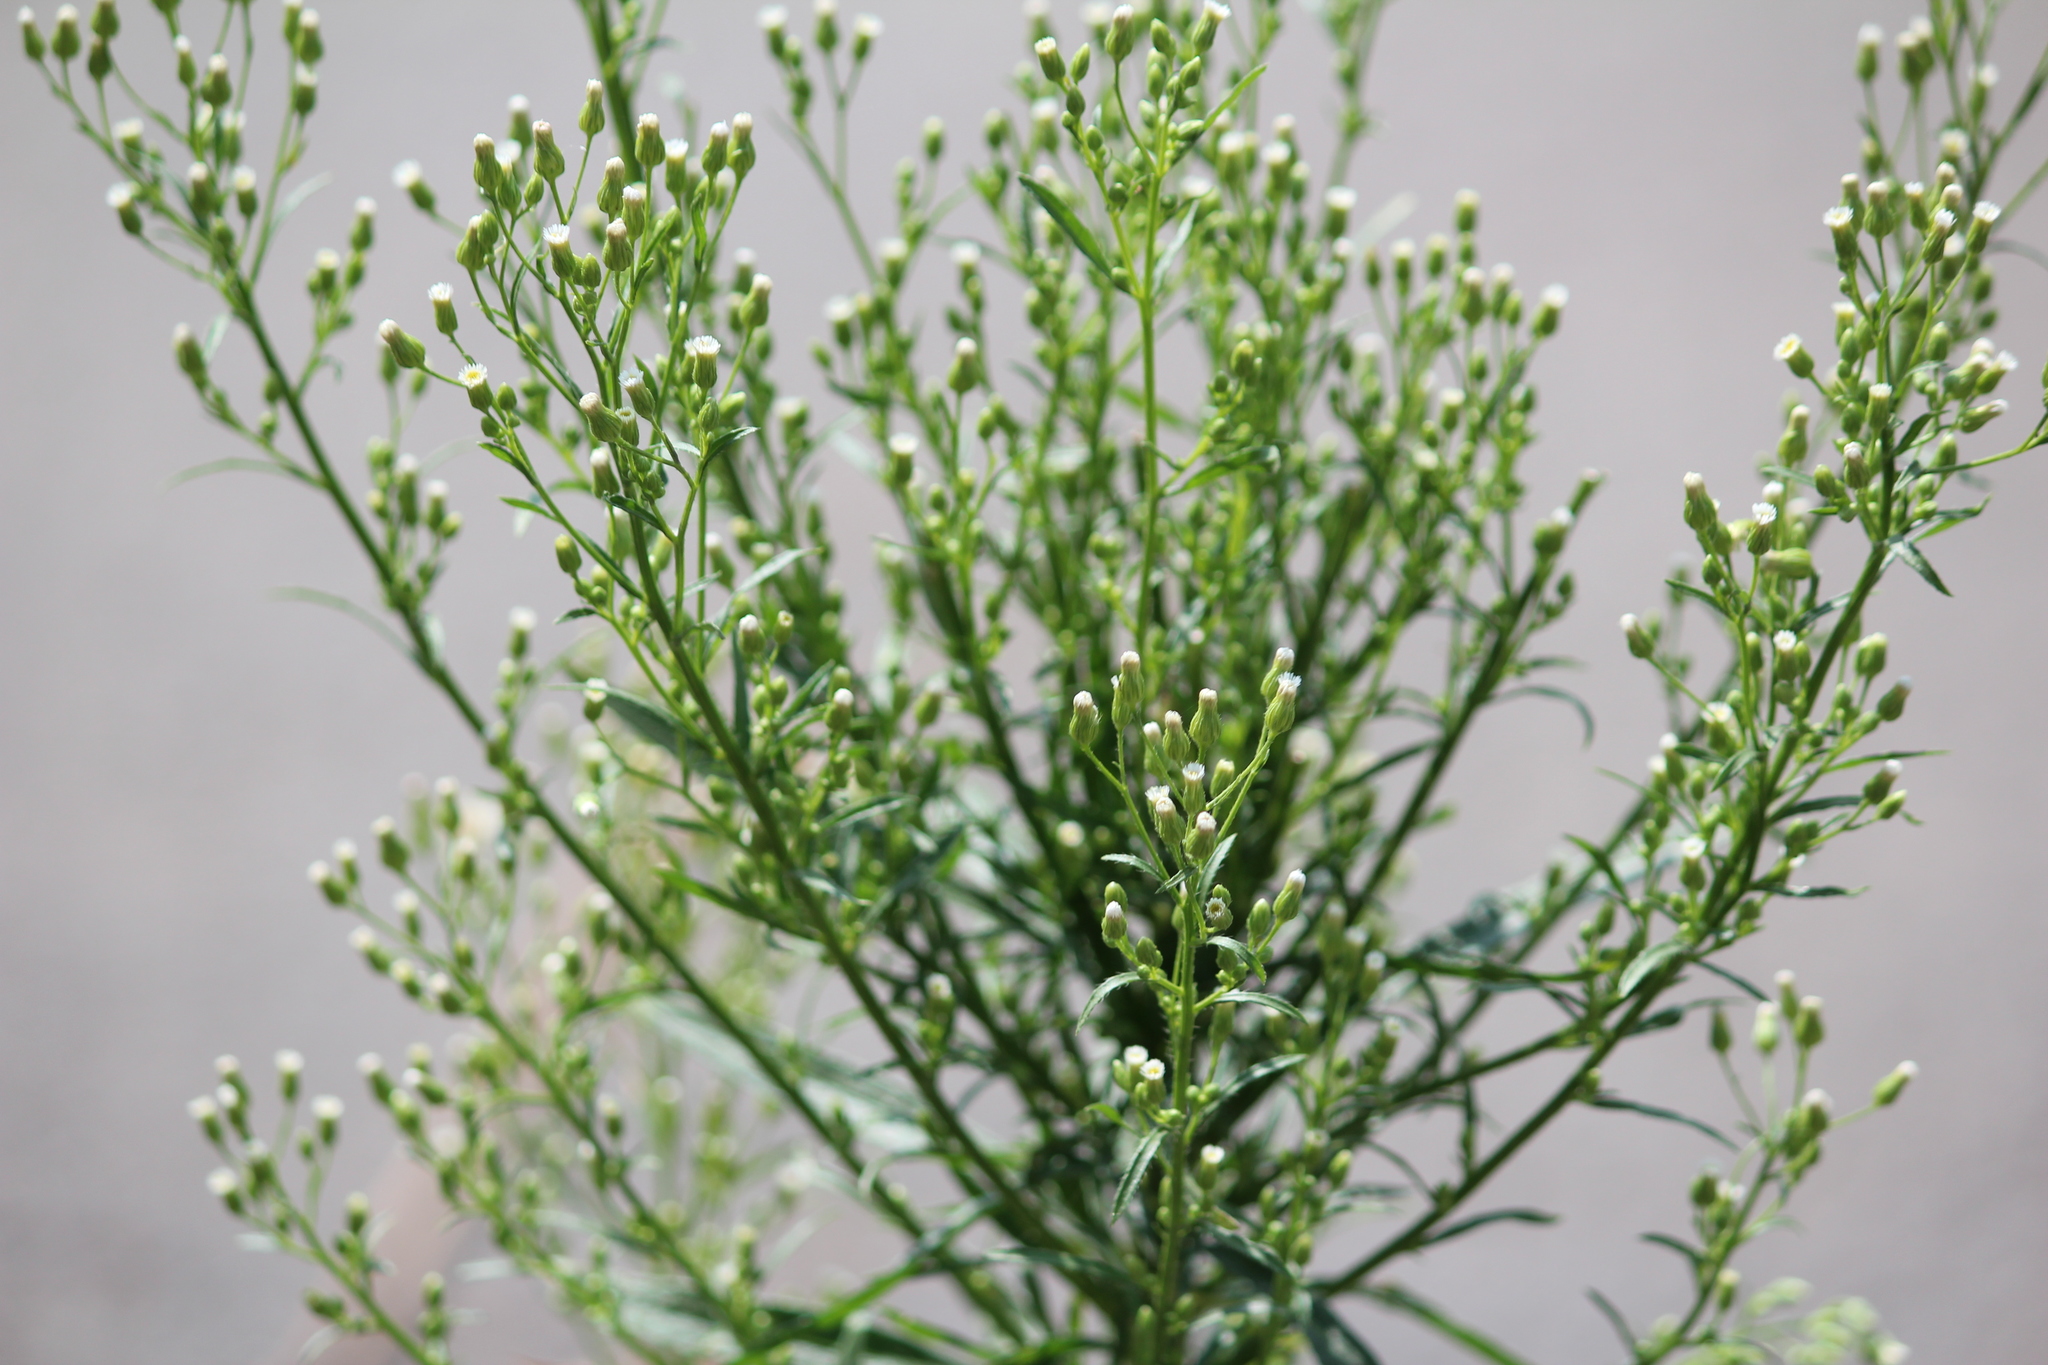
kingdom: Plantae
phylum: Tracheophyta
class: Magnoliopsida
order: Asterales
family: Asteraceae
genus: Erigeron
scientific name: Erigeron canadensis
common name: Canadian fleabane
